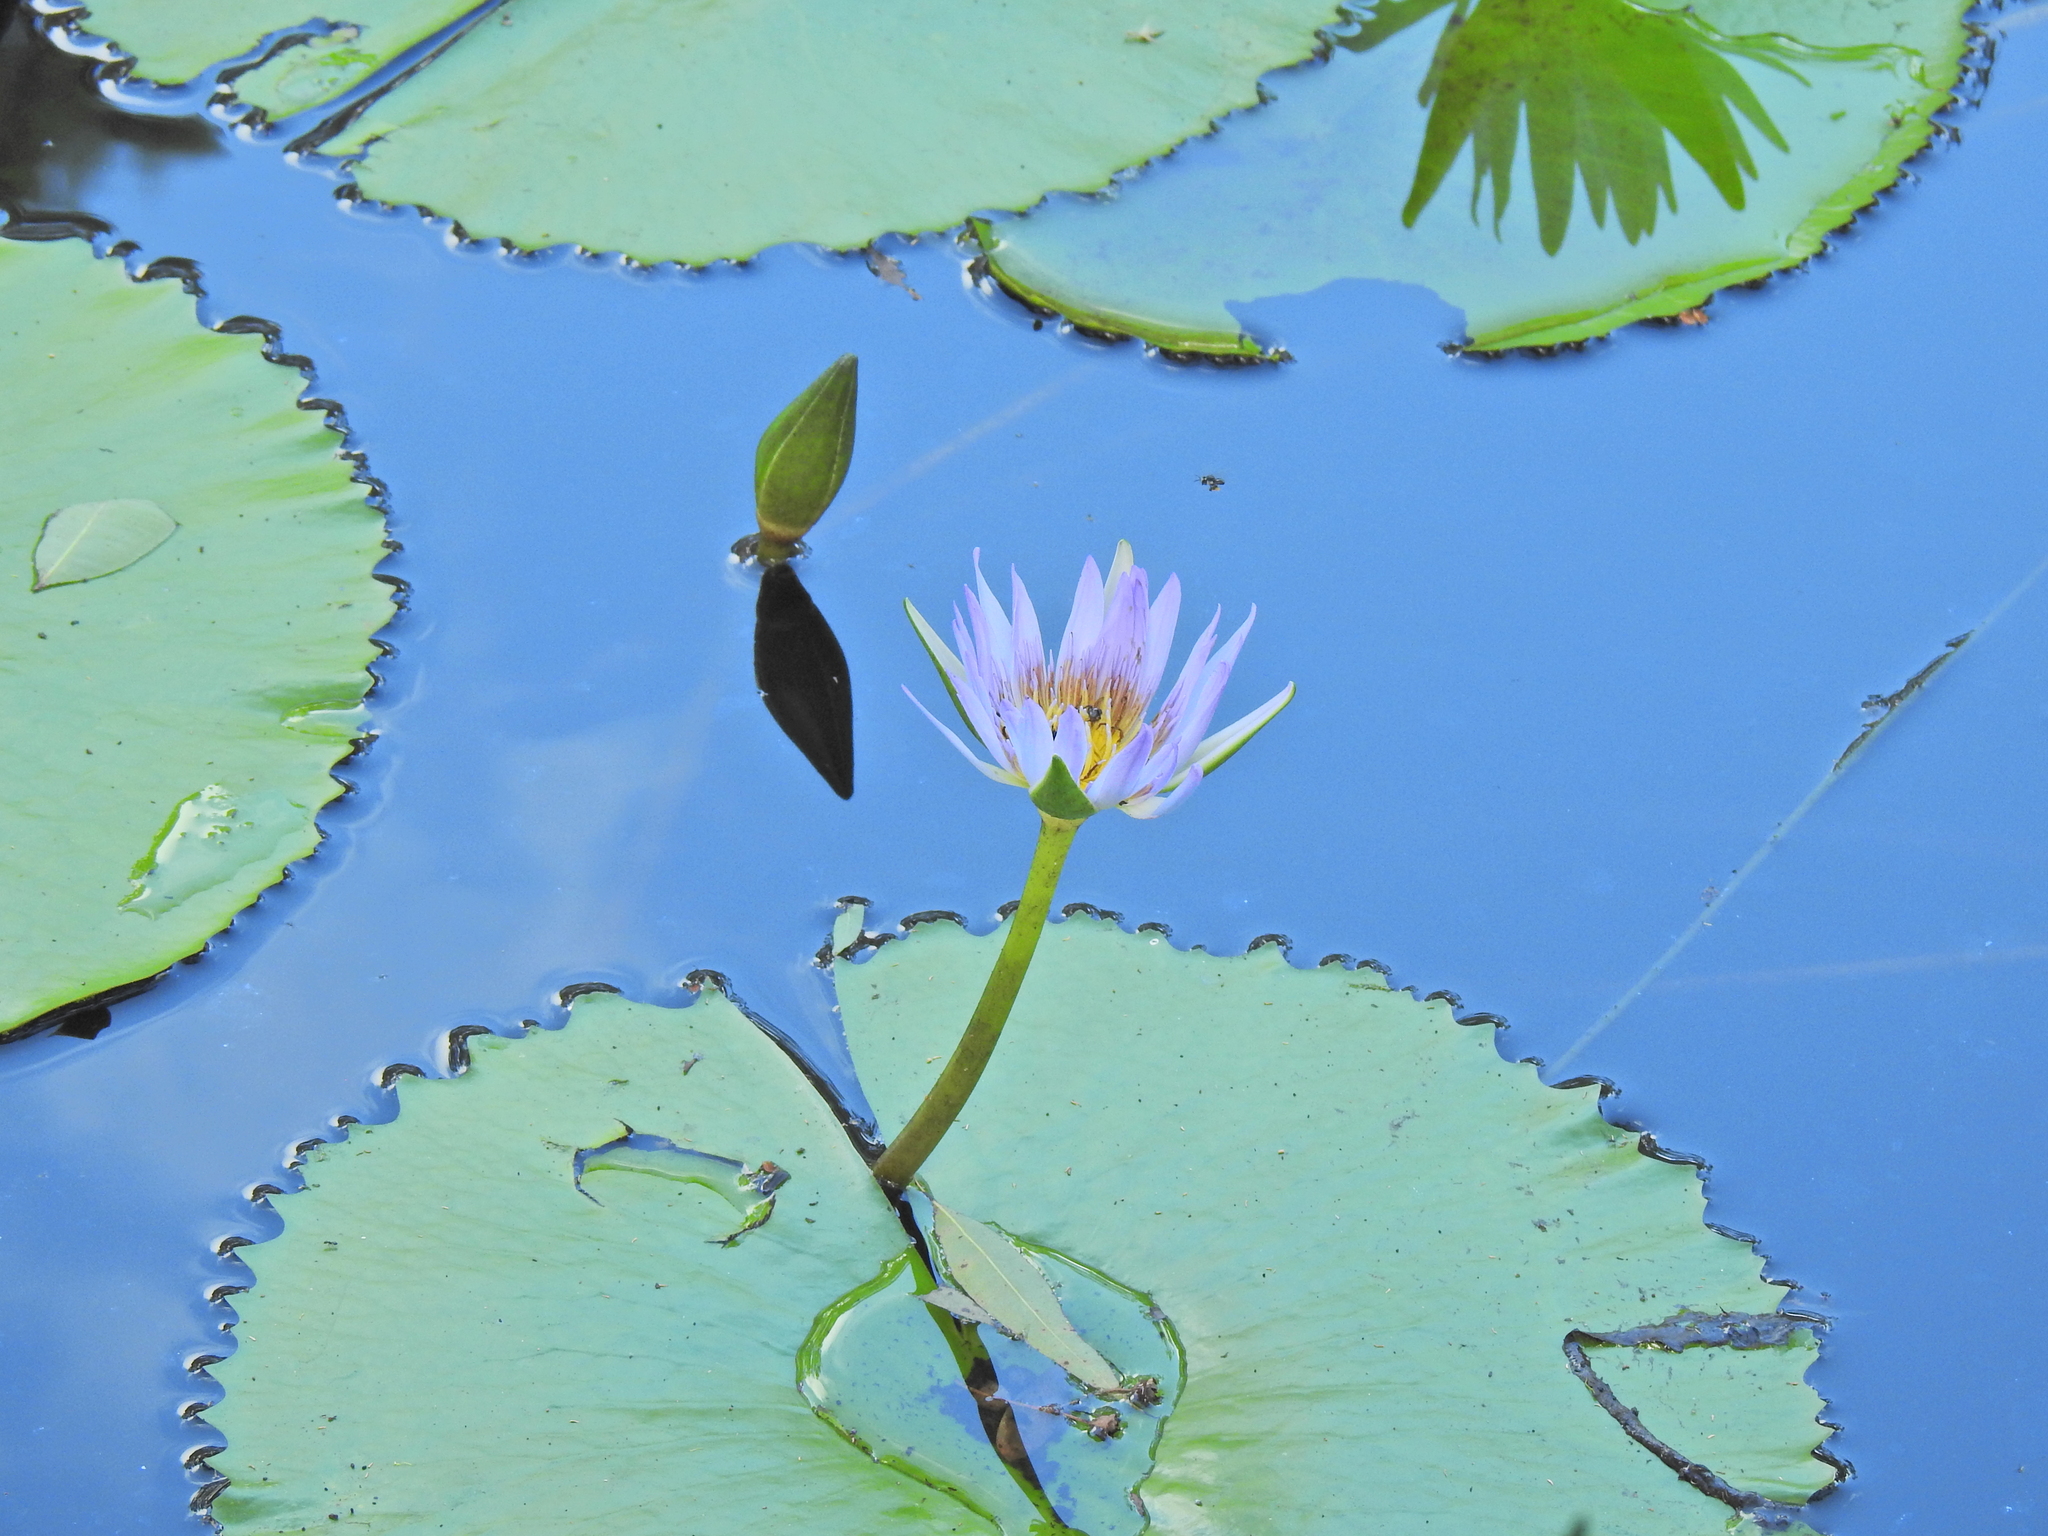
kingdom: Plantae
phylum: Tracheophyta
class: Magnoliopsida
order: Nymphaeales
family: Nymphaeaceae
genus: Nymphaea
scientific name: Nymphaea nouchali
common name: Blue lotus
